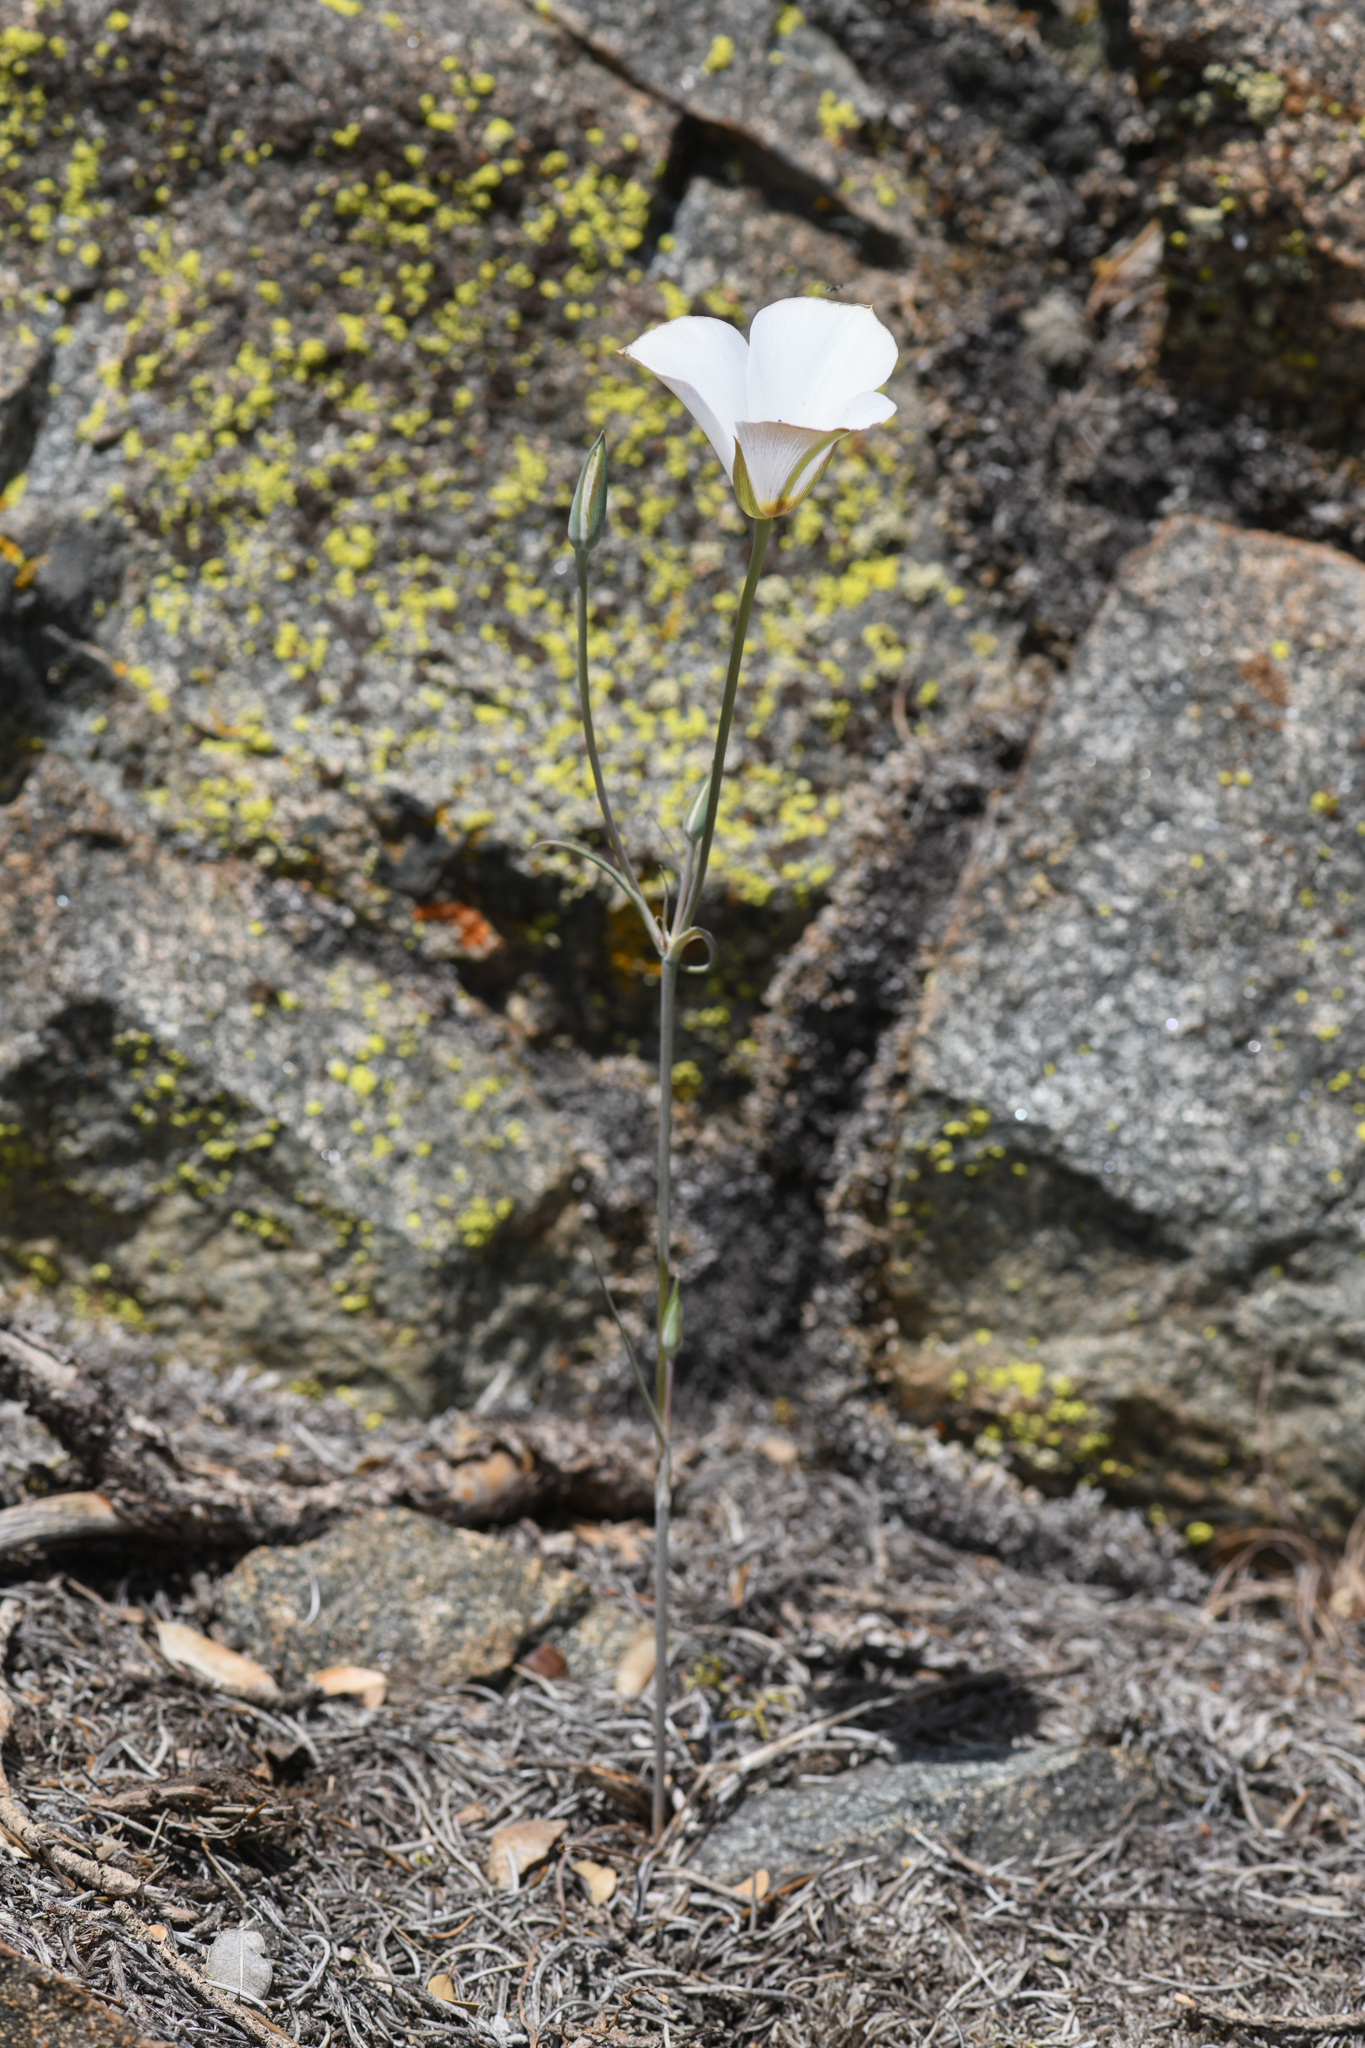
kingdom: Plantae
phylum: Tracheophyta
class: Liliopsida
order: Liliales
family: Liliaceae
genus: Calochortus
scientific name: Calochortus invenustus
